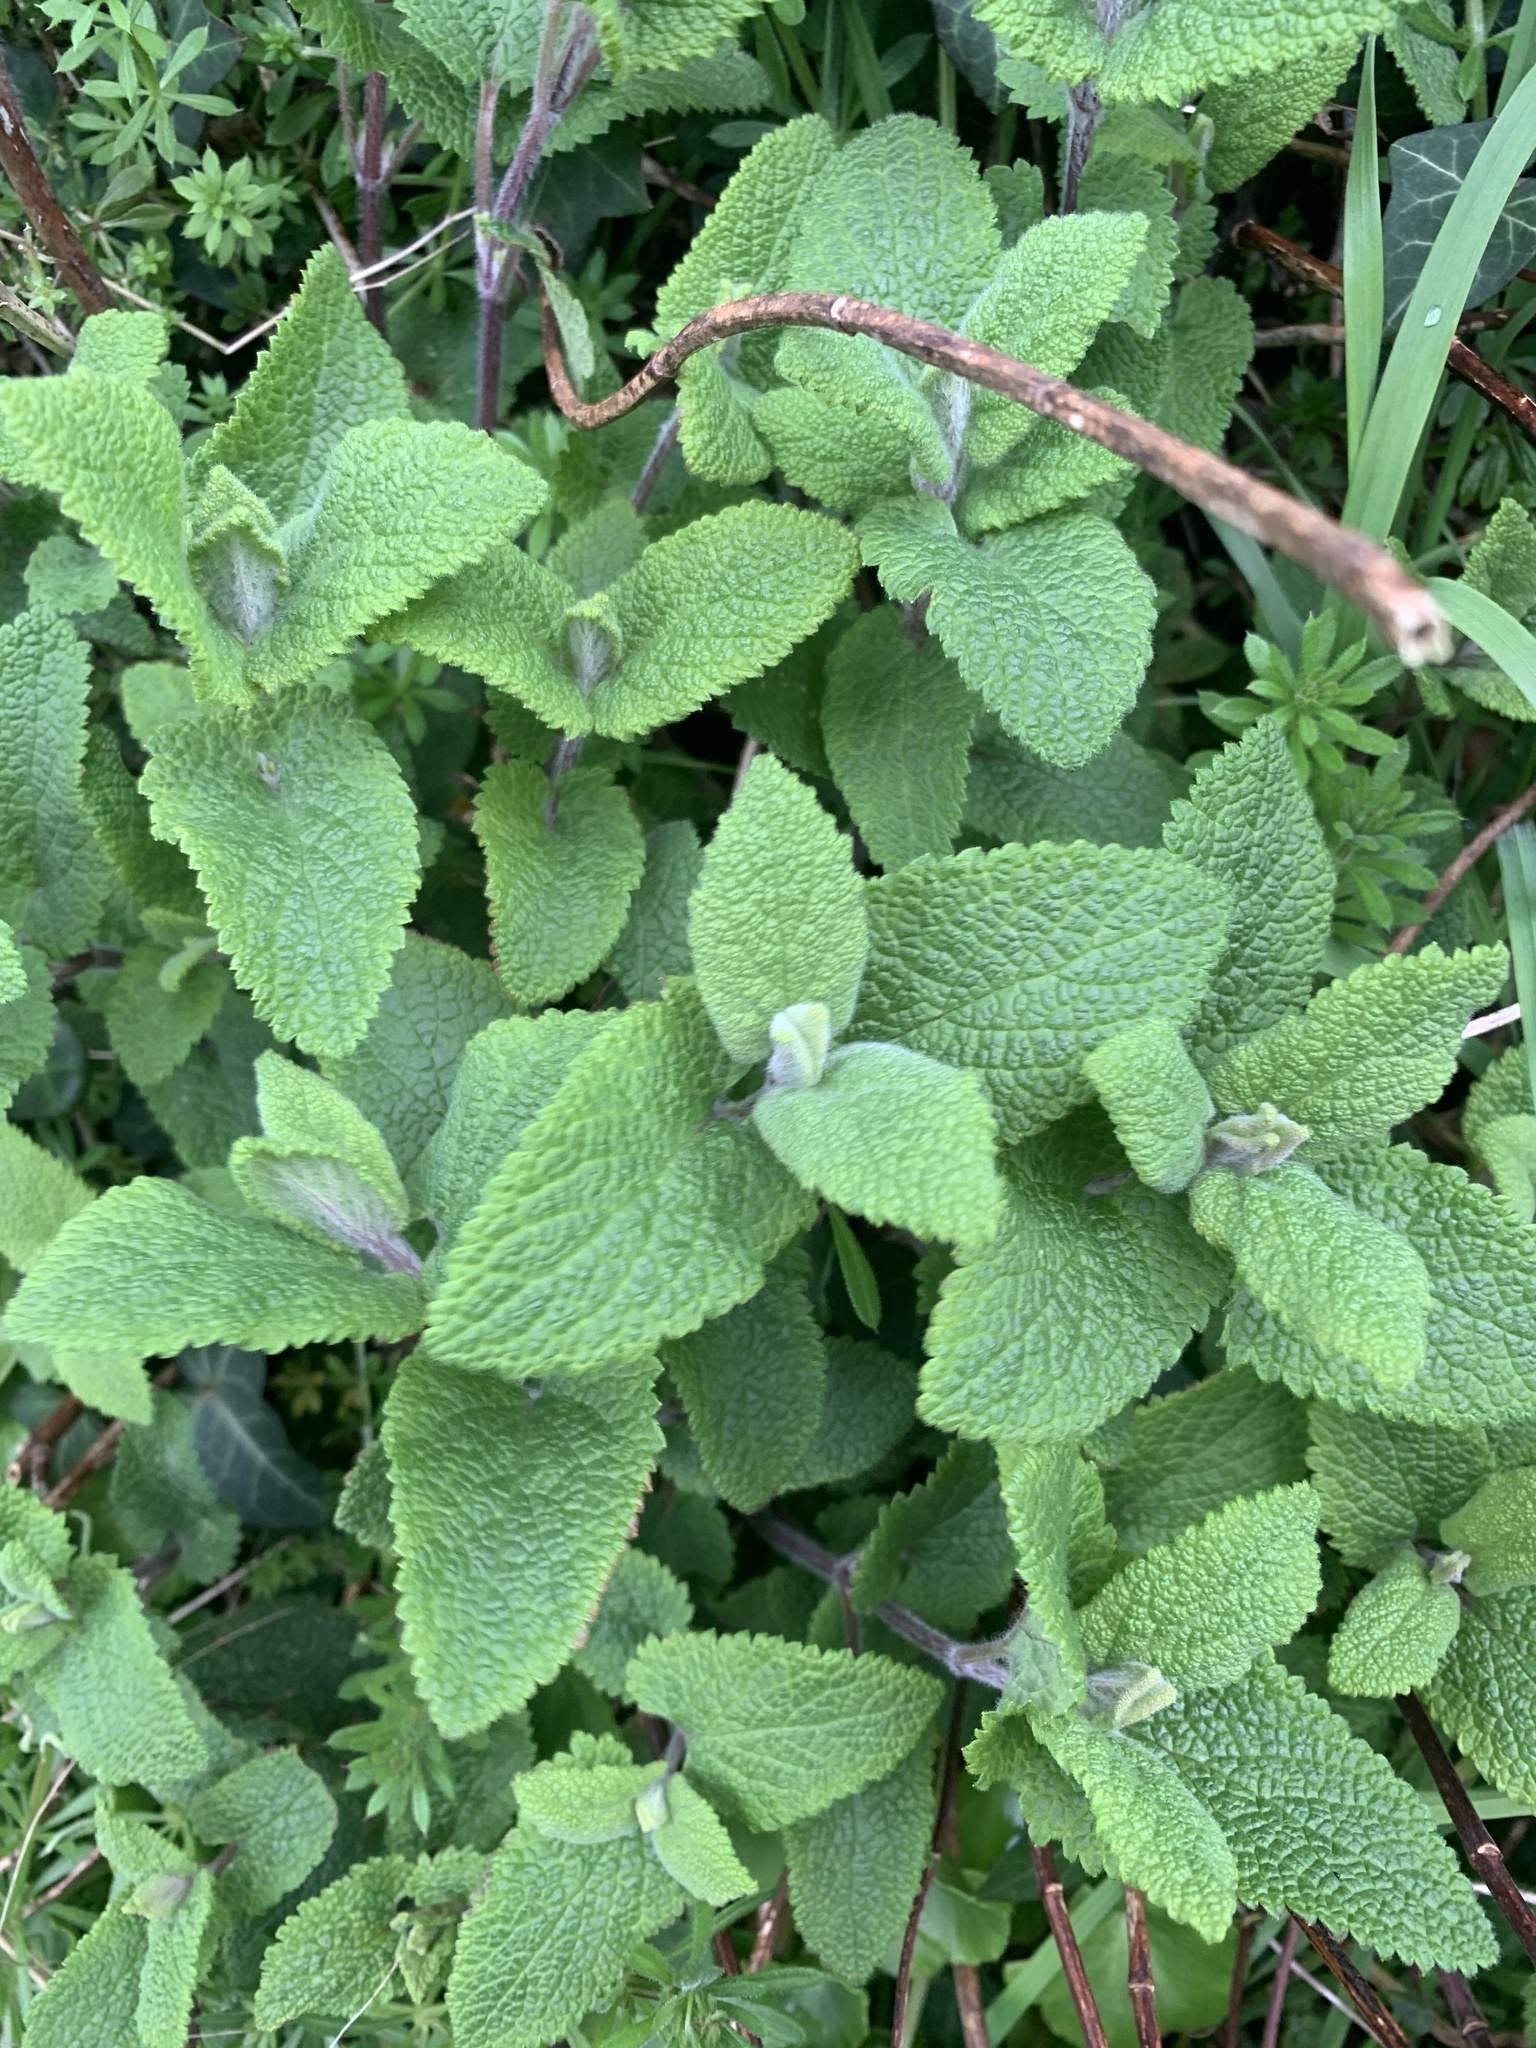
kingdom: Plantae
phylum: Tracheophyta
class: Magnoliopsida
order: Lamiales
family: Lamiaceae
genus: Teucrium
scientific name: Teucrium scorodonia
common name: Woodland germander
